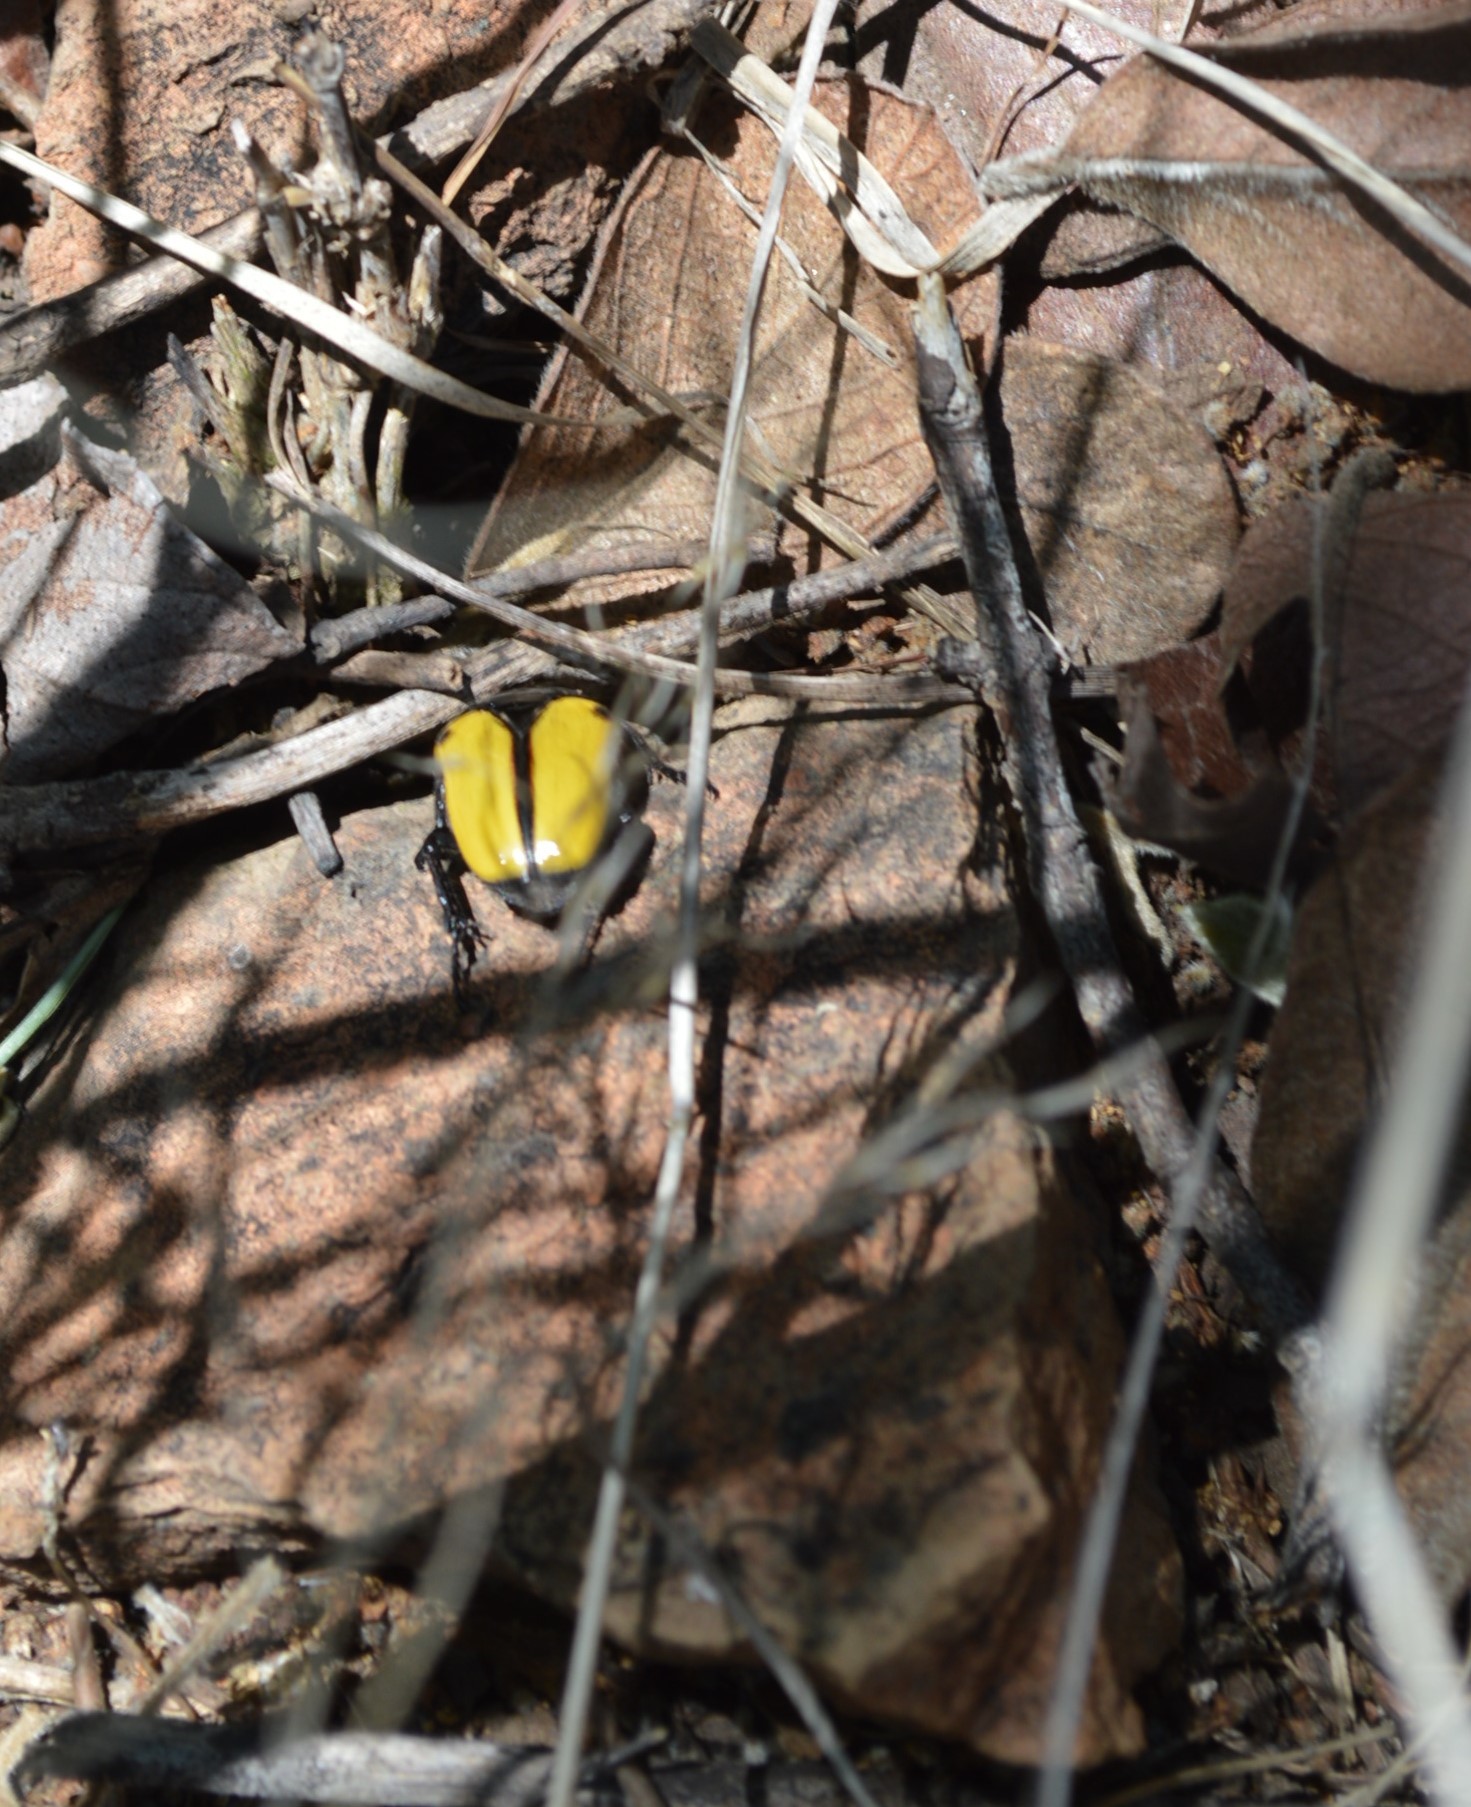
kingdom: Animalia
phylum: Arthropoda
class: Insecta
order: Coleoptera
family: Scarabaeidae
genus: Anisorrhina
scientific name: Anisorrhina algoensis
